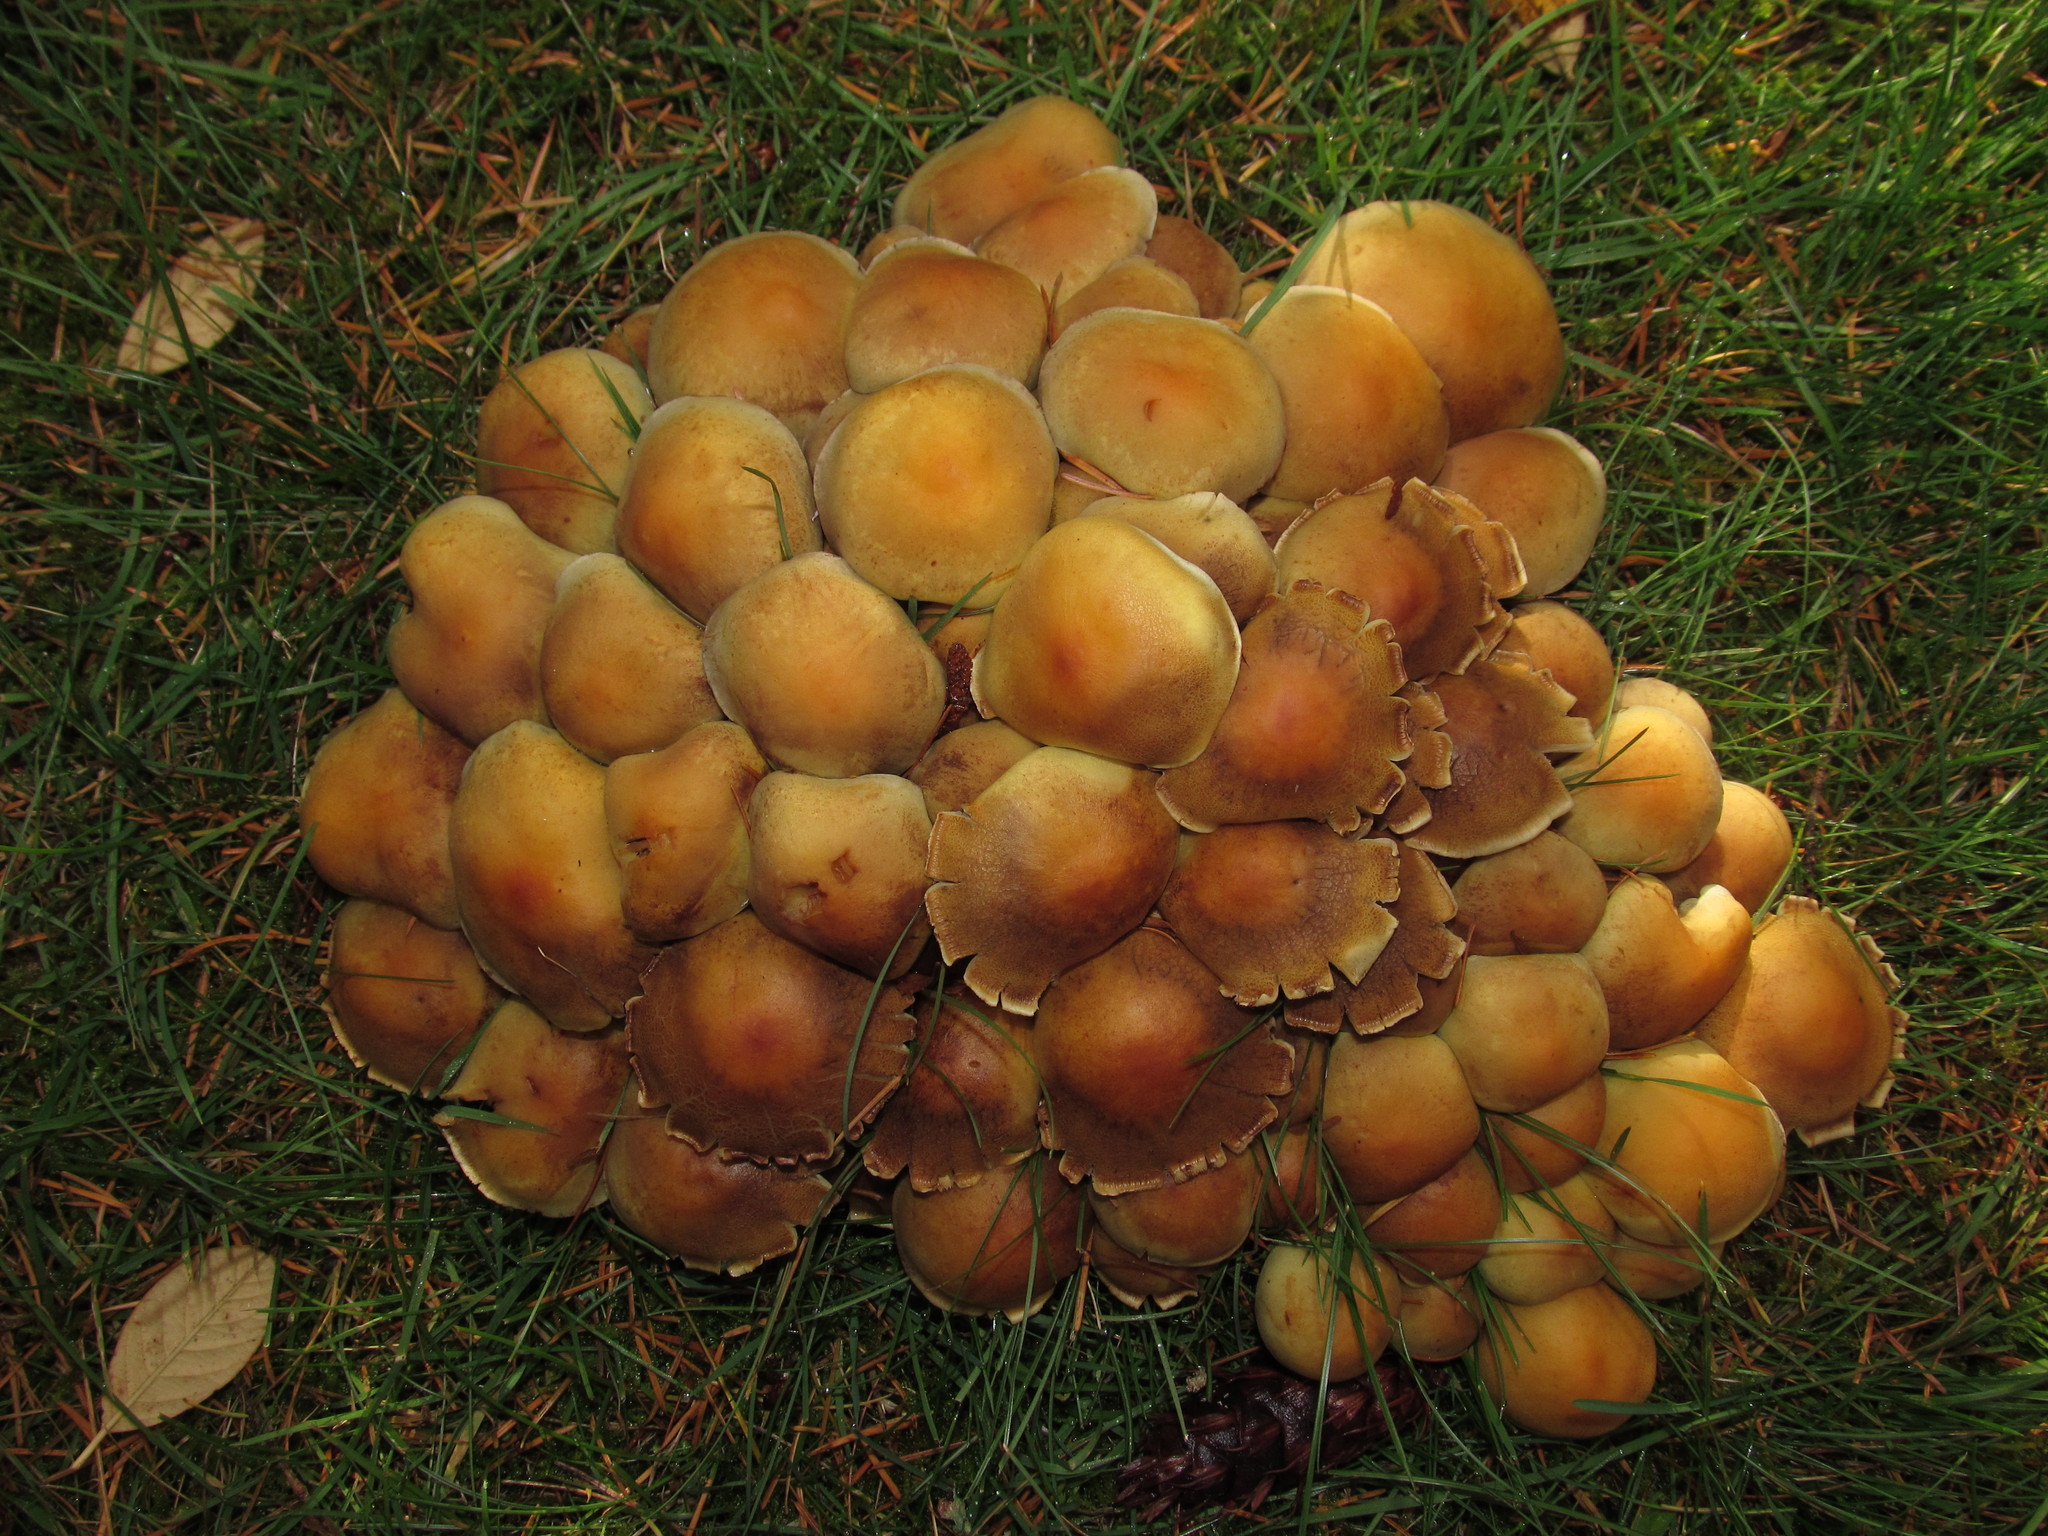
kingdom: Fungi
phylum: Basidiomycota
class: Agaricomycetes
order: Agaricales
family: Strophariaceae
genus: Hypholoma
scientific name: Hypholoma fasciculare
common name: Sulphur tuft
